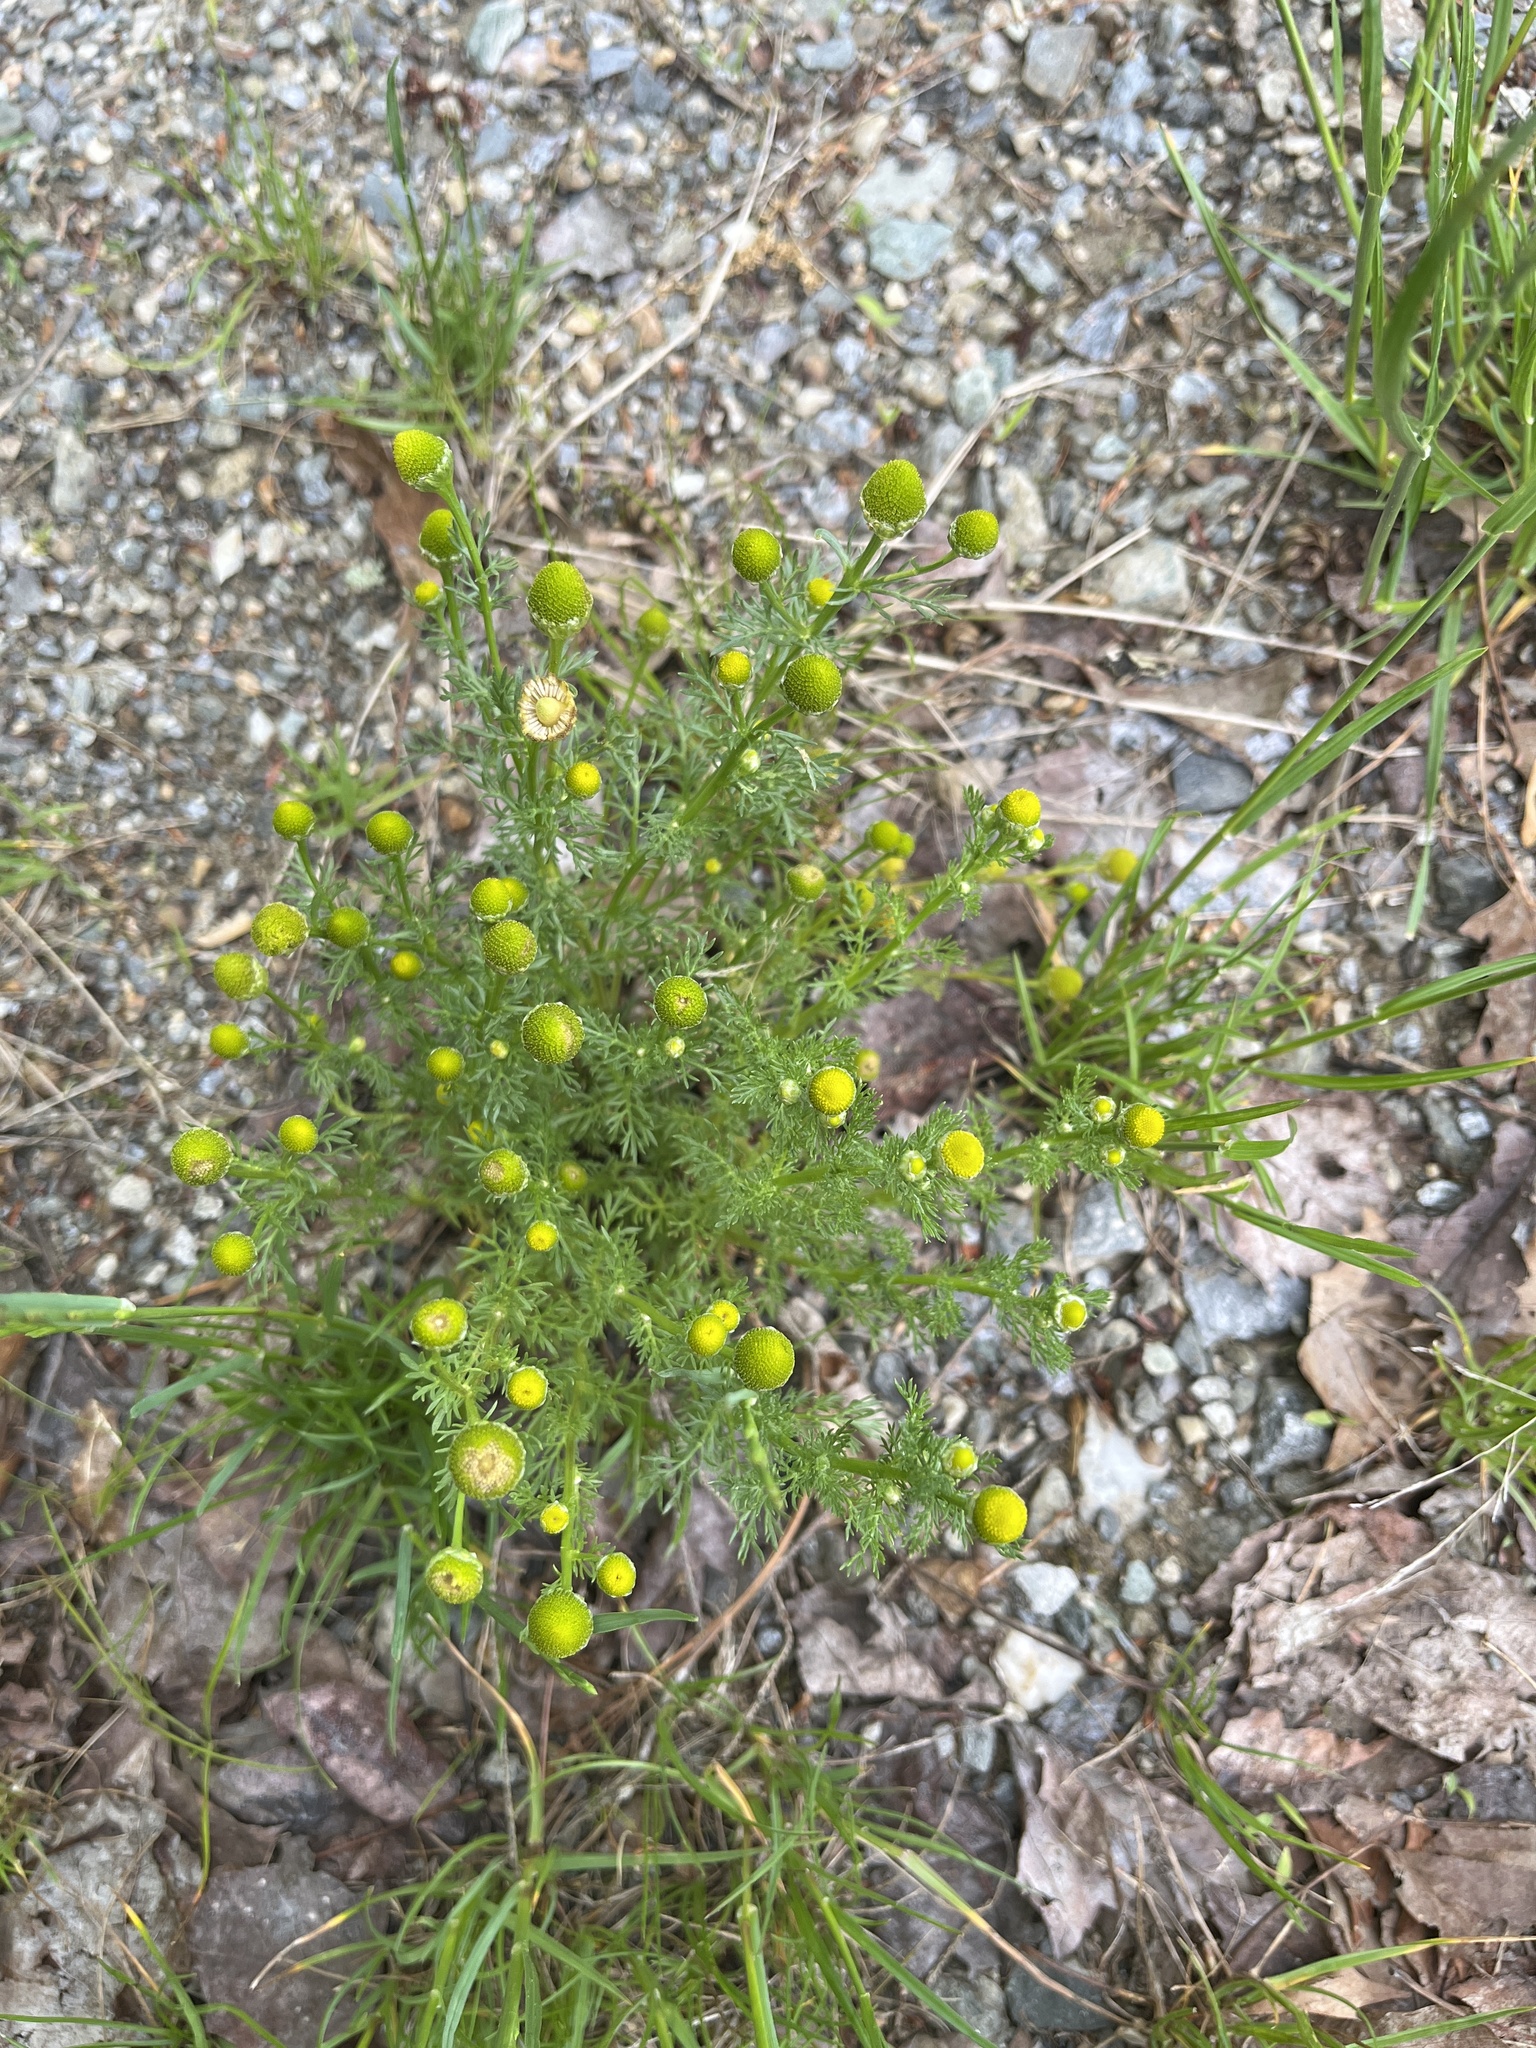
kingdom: Plantae
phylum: Tracheophyta
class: Magnoliopsida
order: Asterales
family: Asteraceae
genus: Matricaria
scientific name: Matricaria discoidea
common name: Disc mayweed
